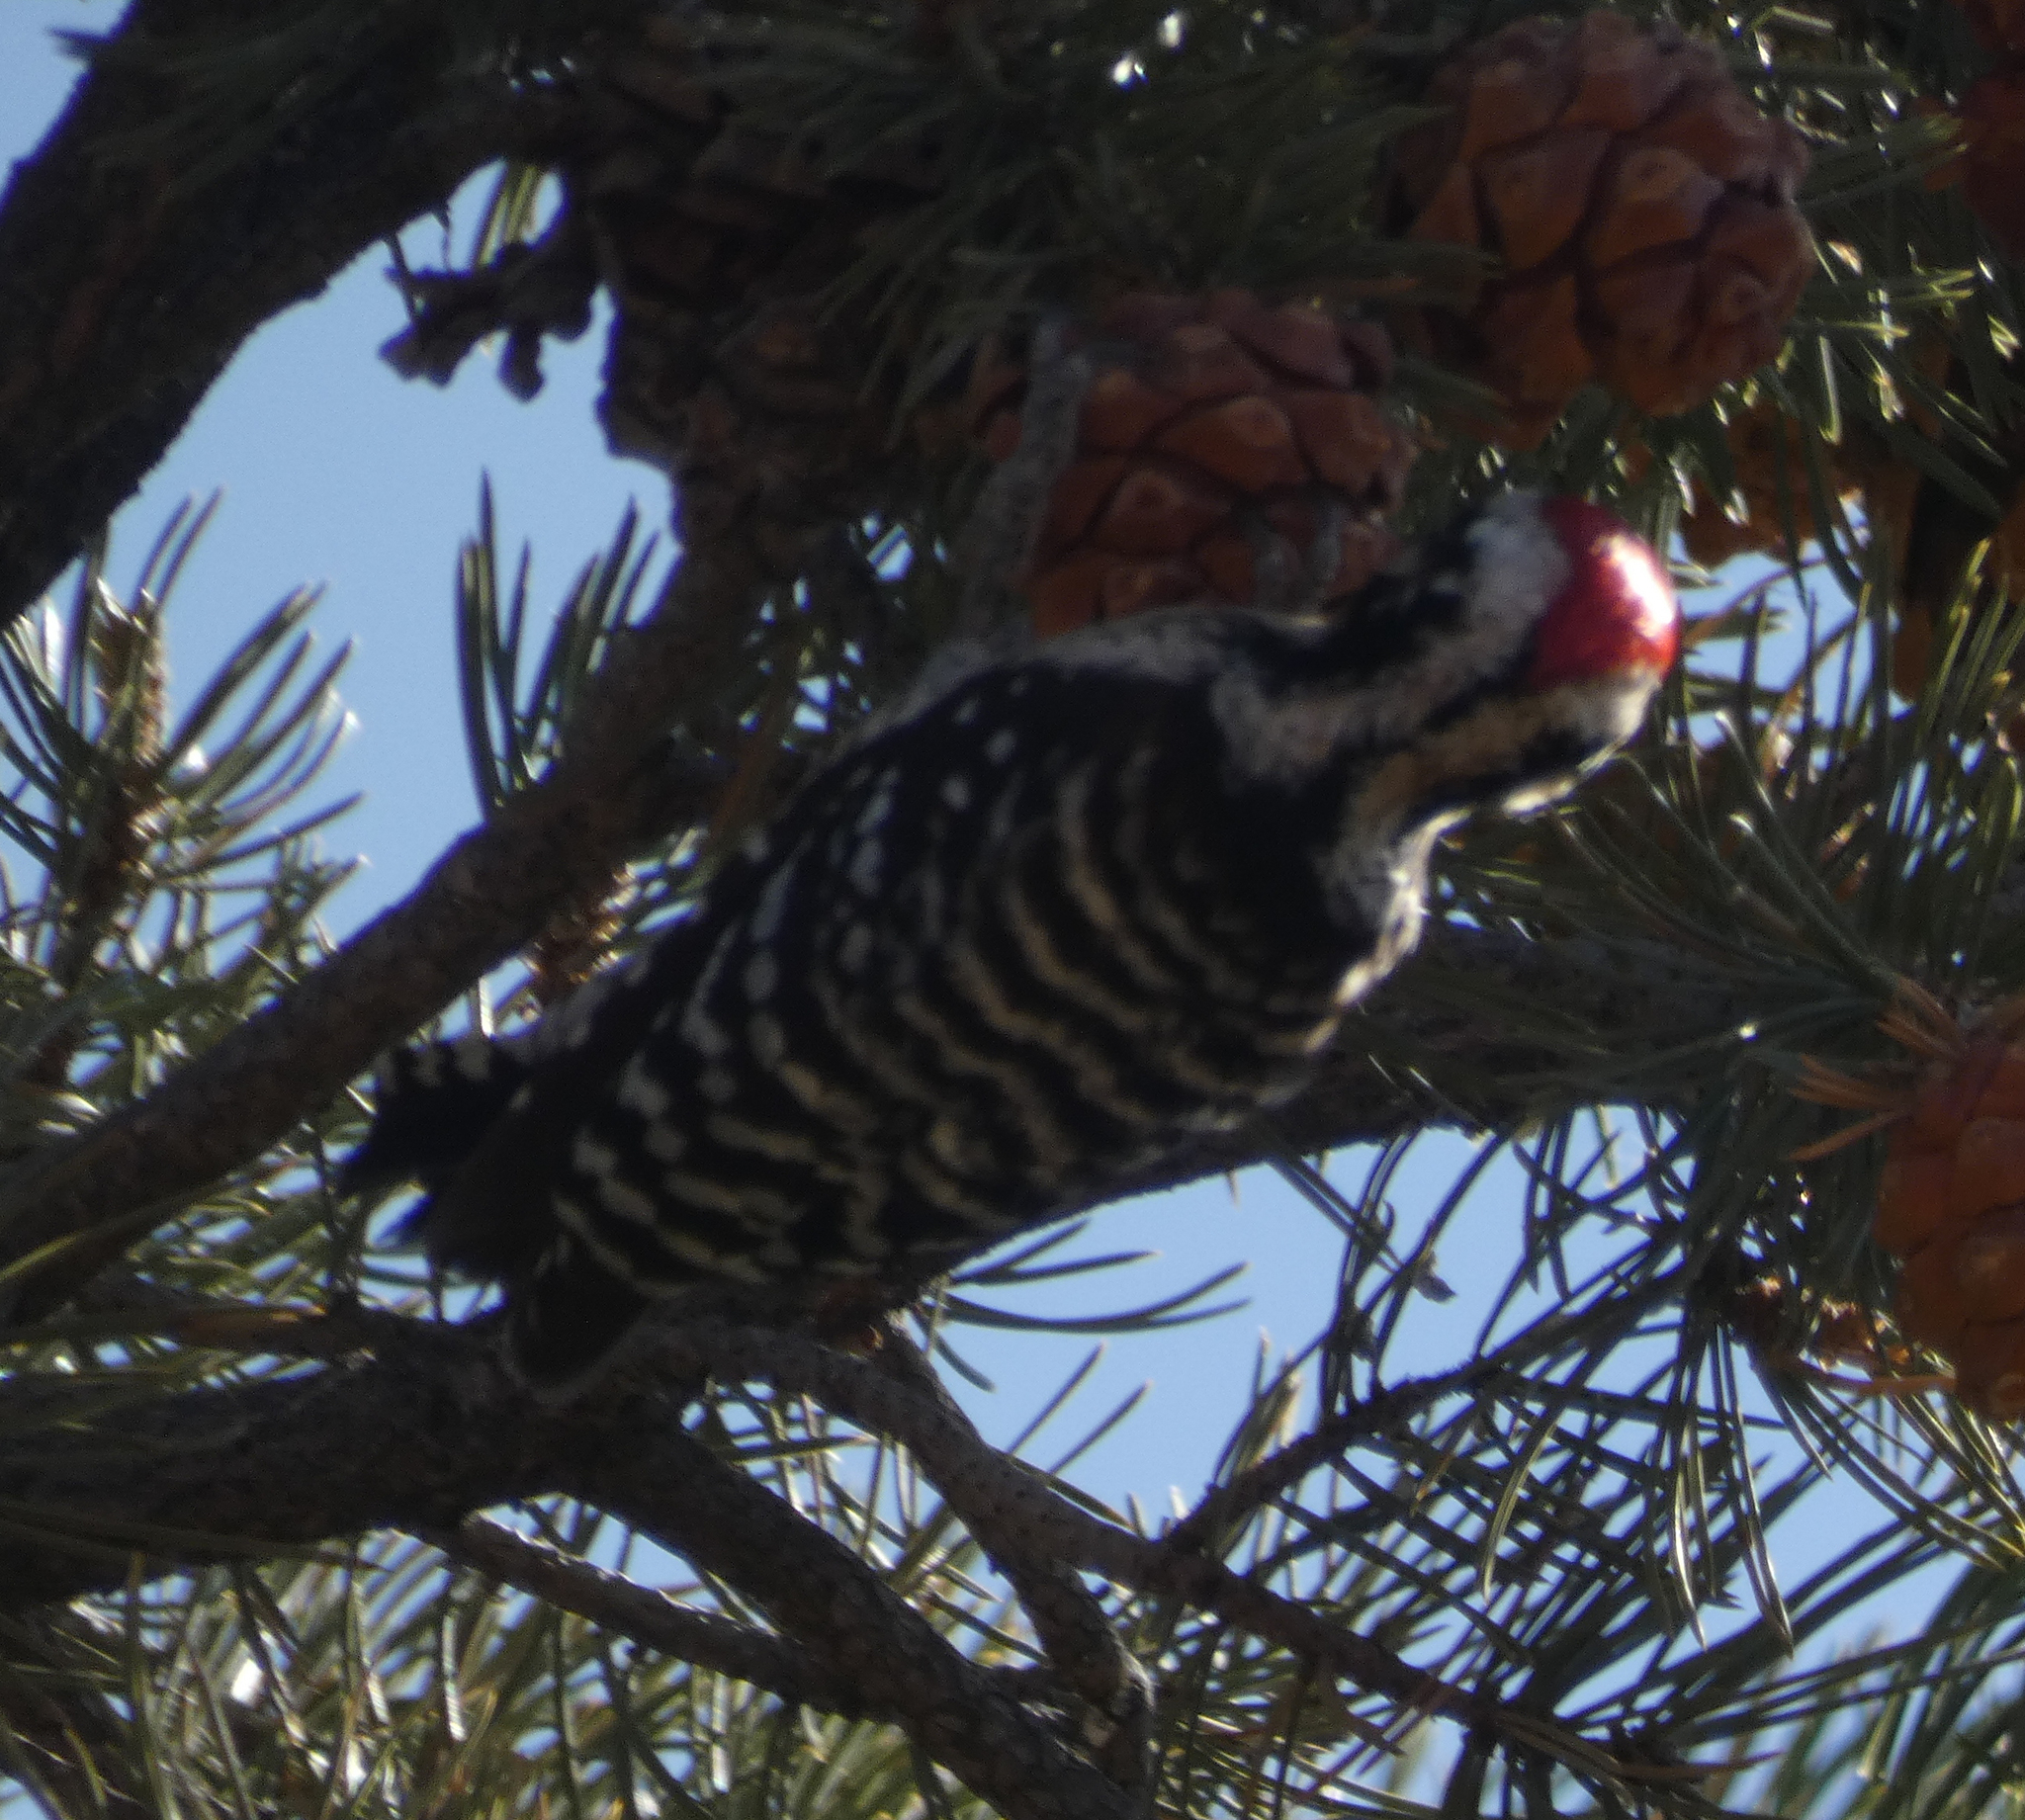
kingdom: Animalia
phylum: Chordata
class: Aves
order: Piciformes
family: Picidae
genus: Dryobates
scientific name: Dryobates scalaris
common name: Ladder-backed woodpecker
